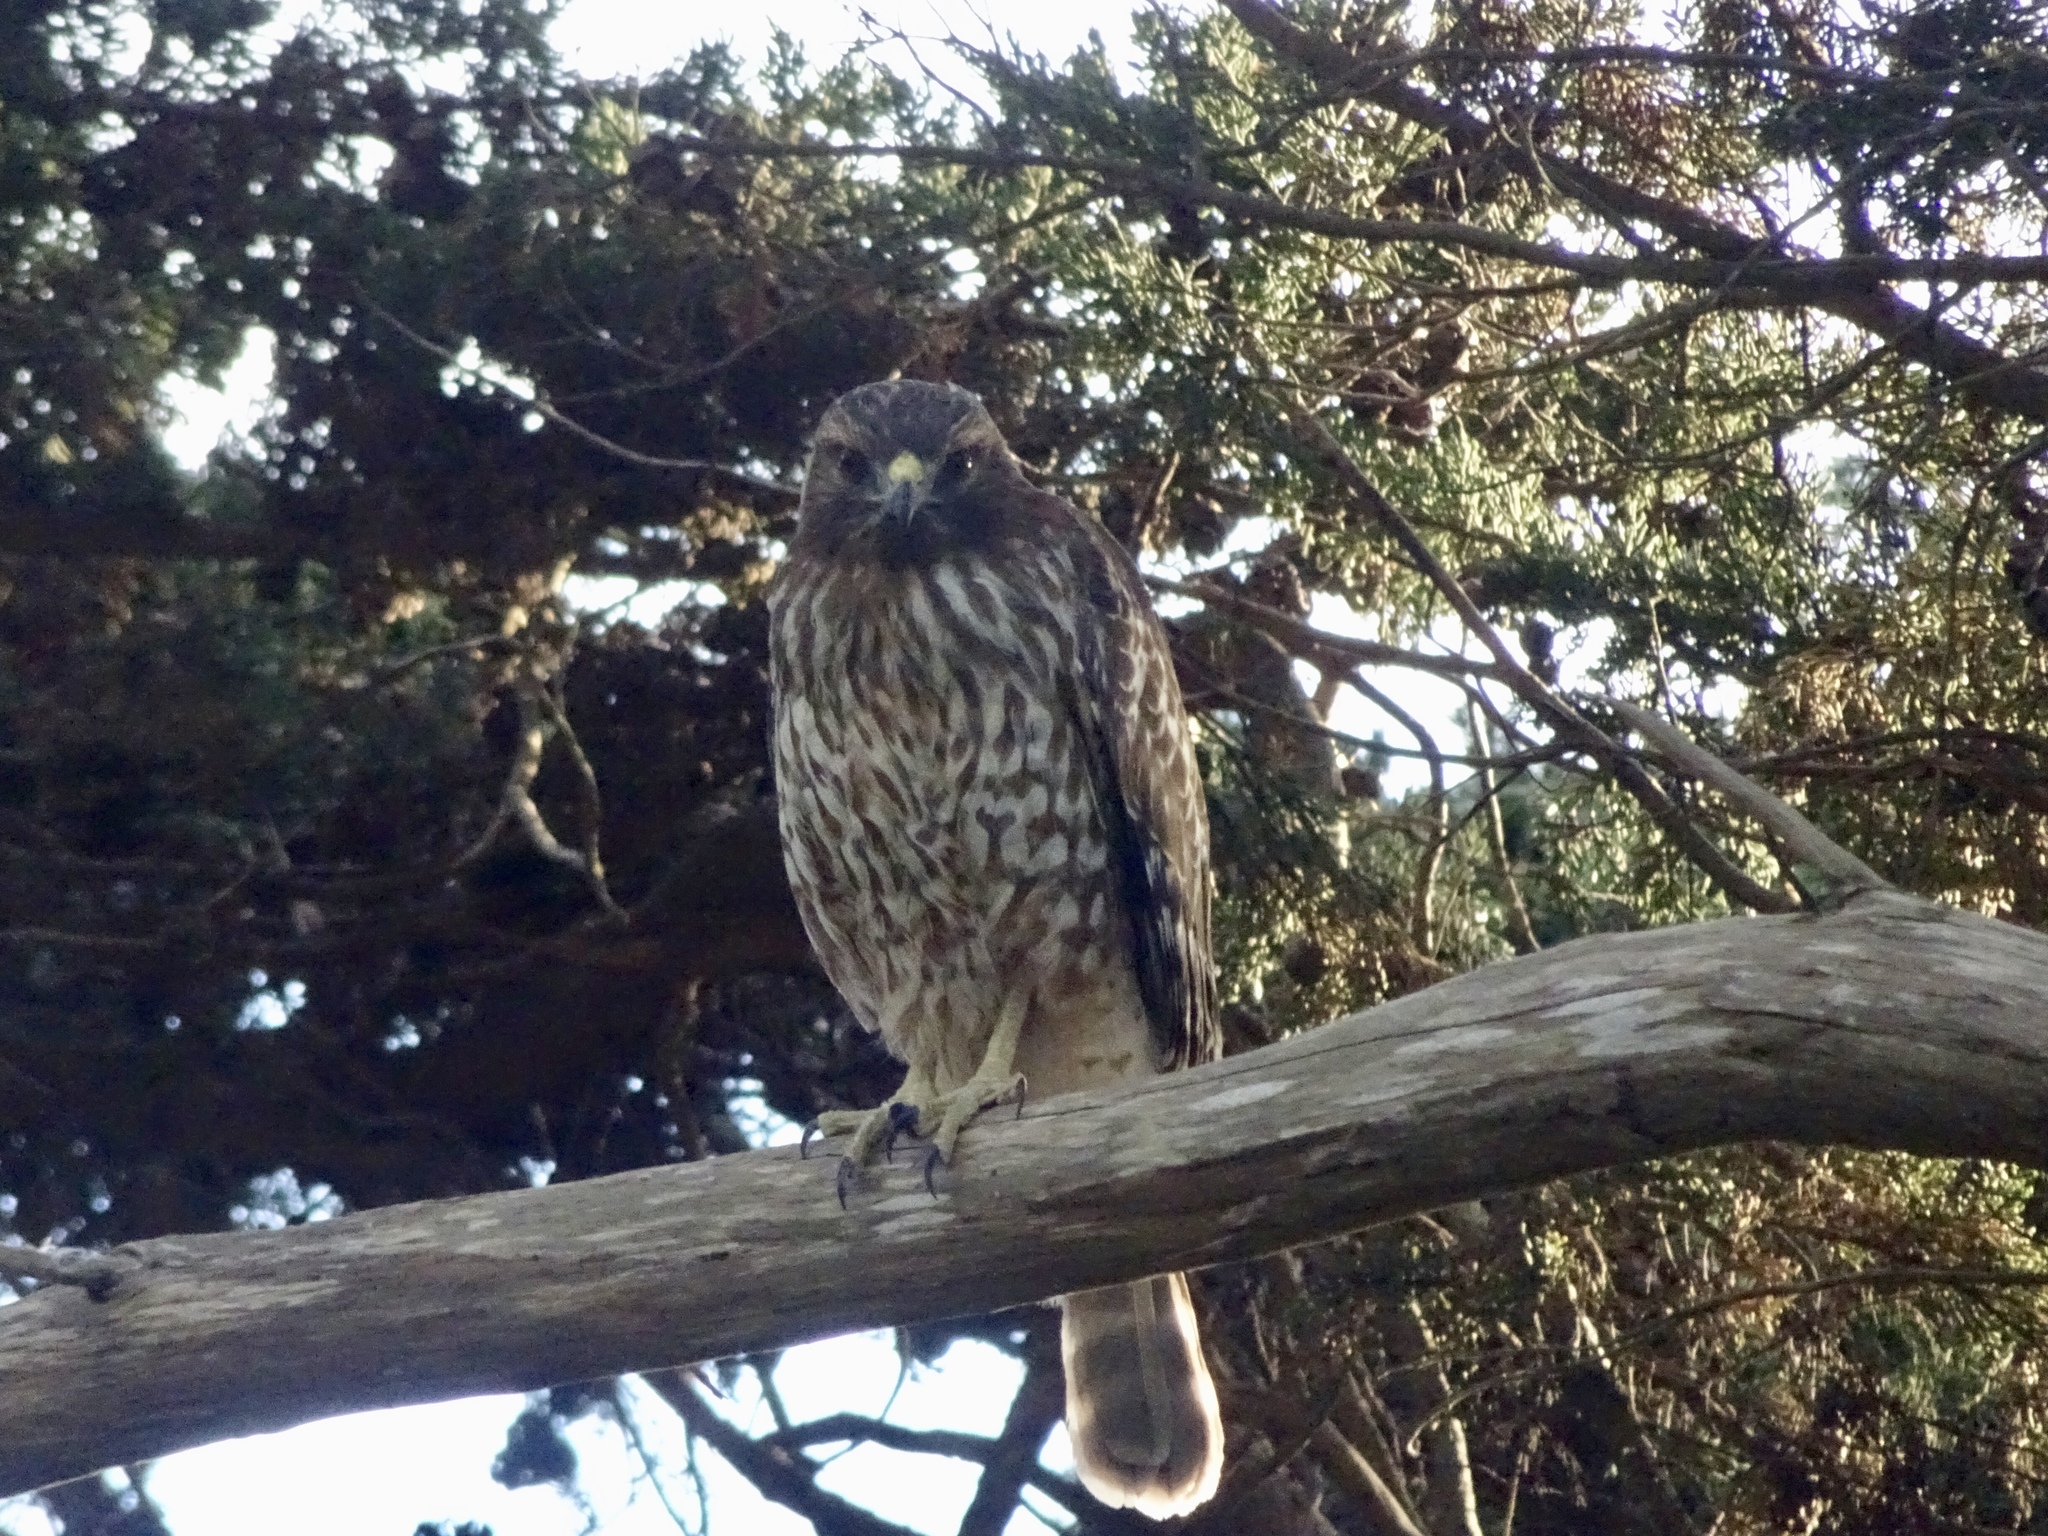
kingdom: Animalia
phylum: Chordata
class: Aves
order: Accipitriformes
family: Accipitridae
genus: Buteo
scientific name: Buteo lineatus
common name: Red-shouldered hawk
